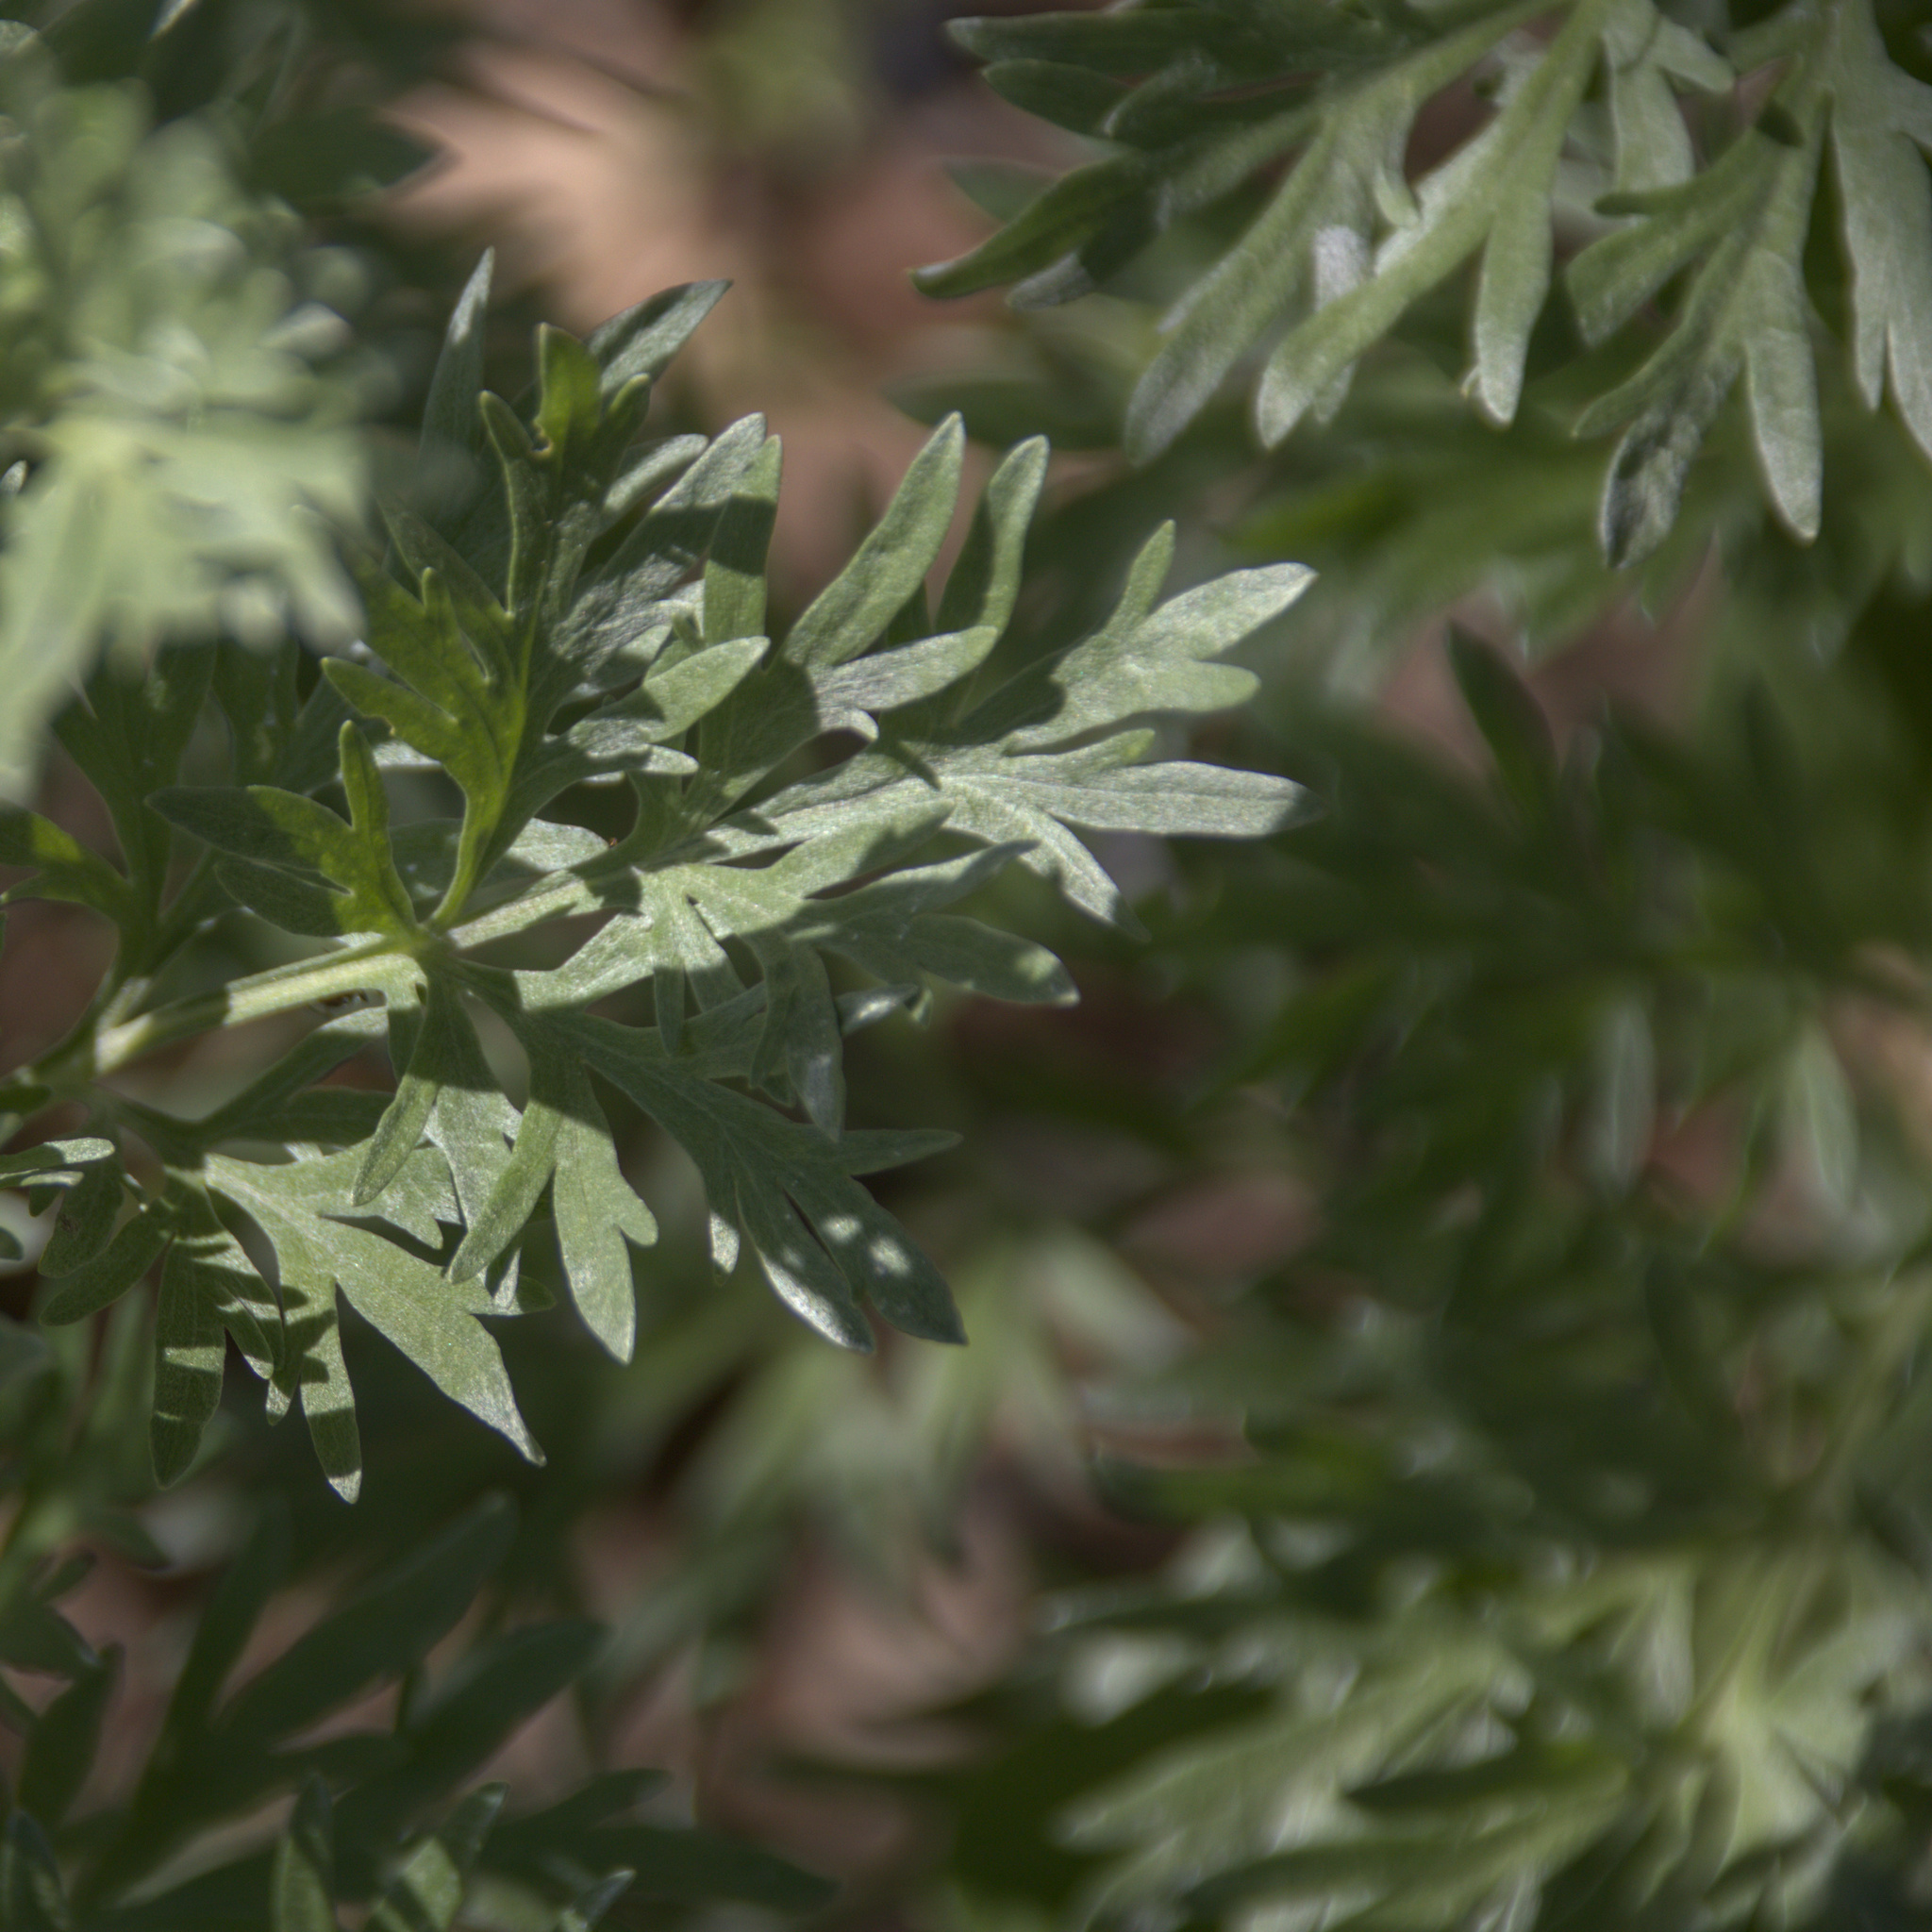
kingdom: Plantae
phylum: Tracheophyta
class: Magnoliopsida
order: Asterales
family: Asteraceae
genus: Artemisia
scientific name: Artemisia absinthium
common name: Wormwood
